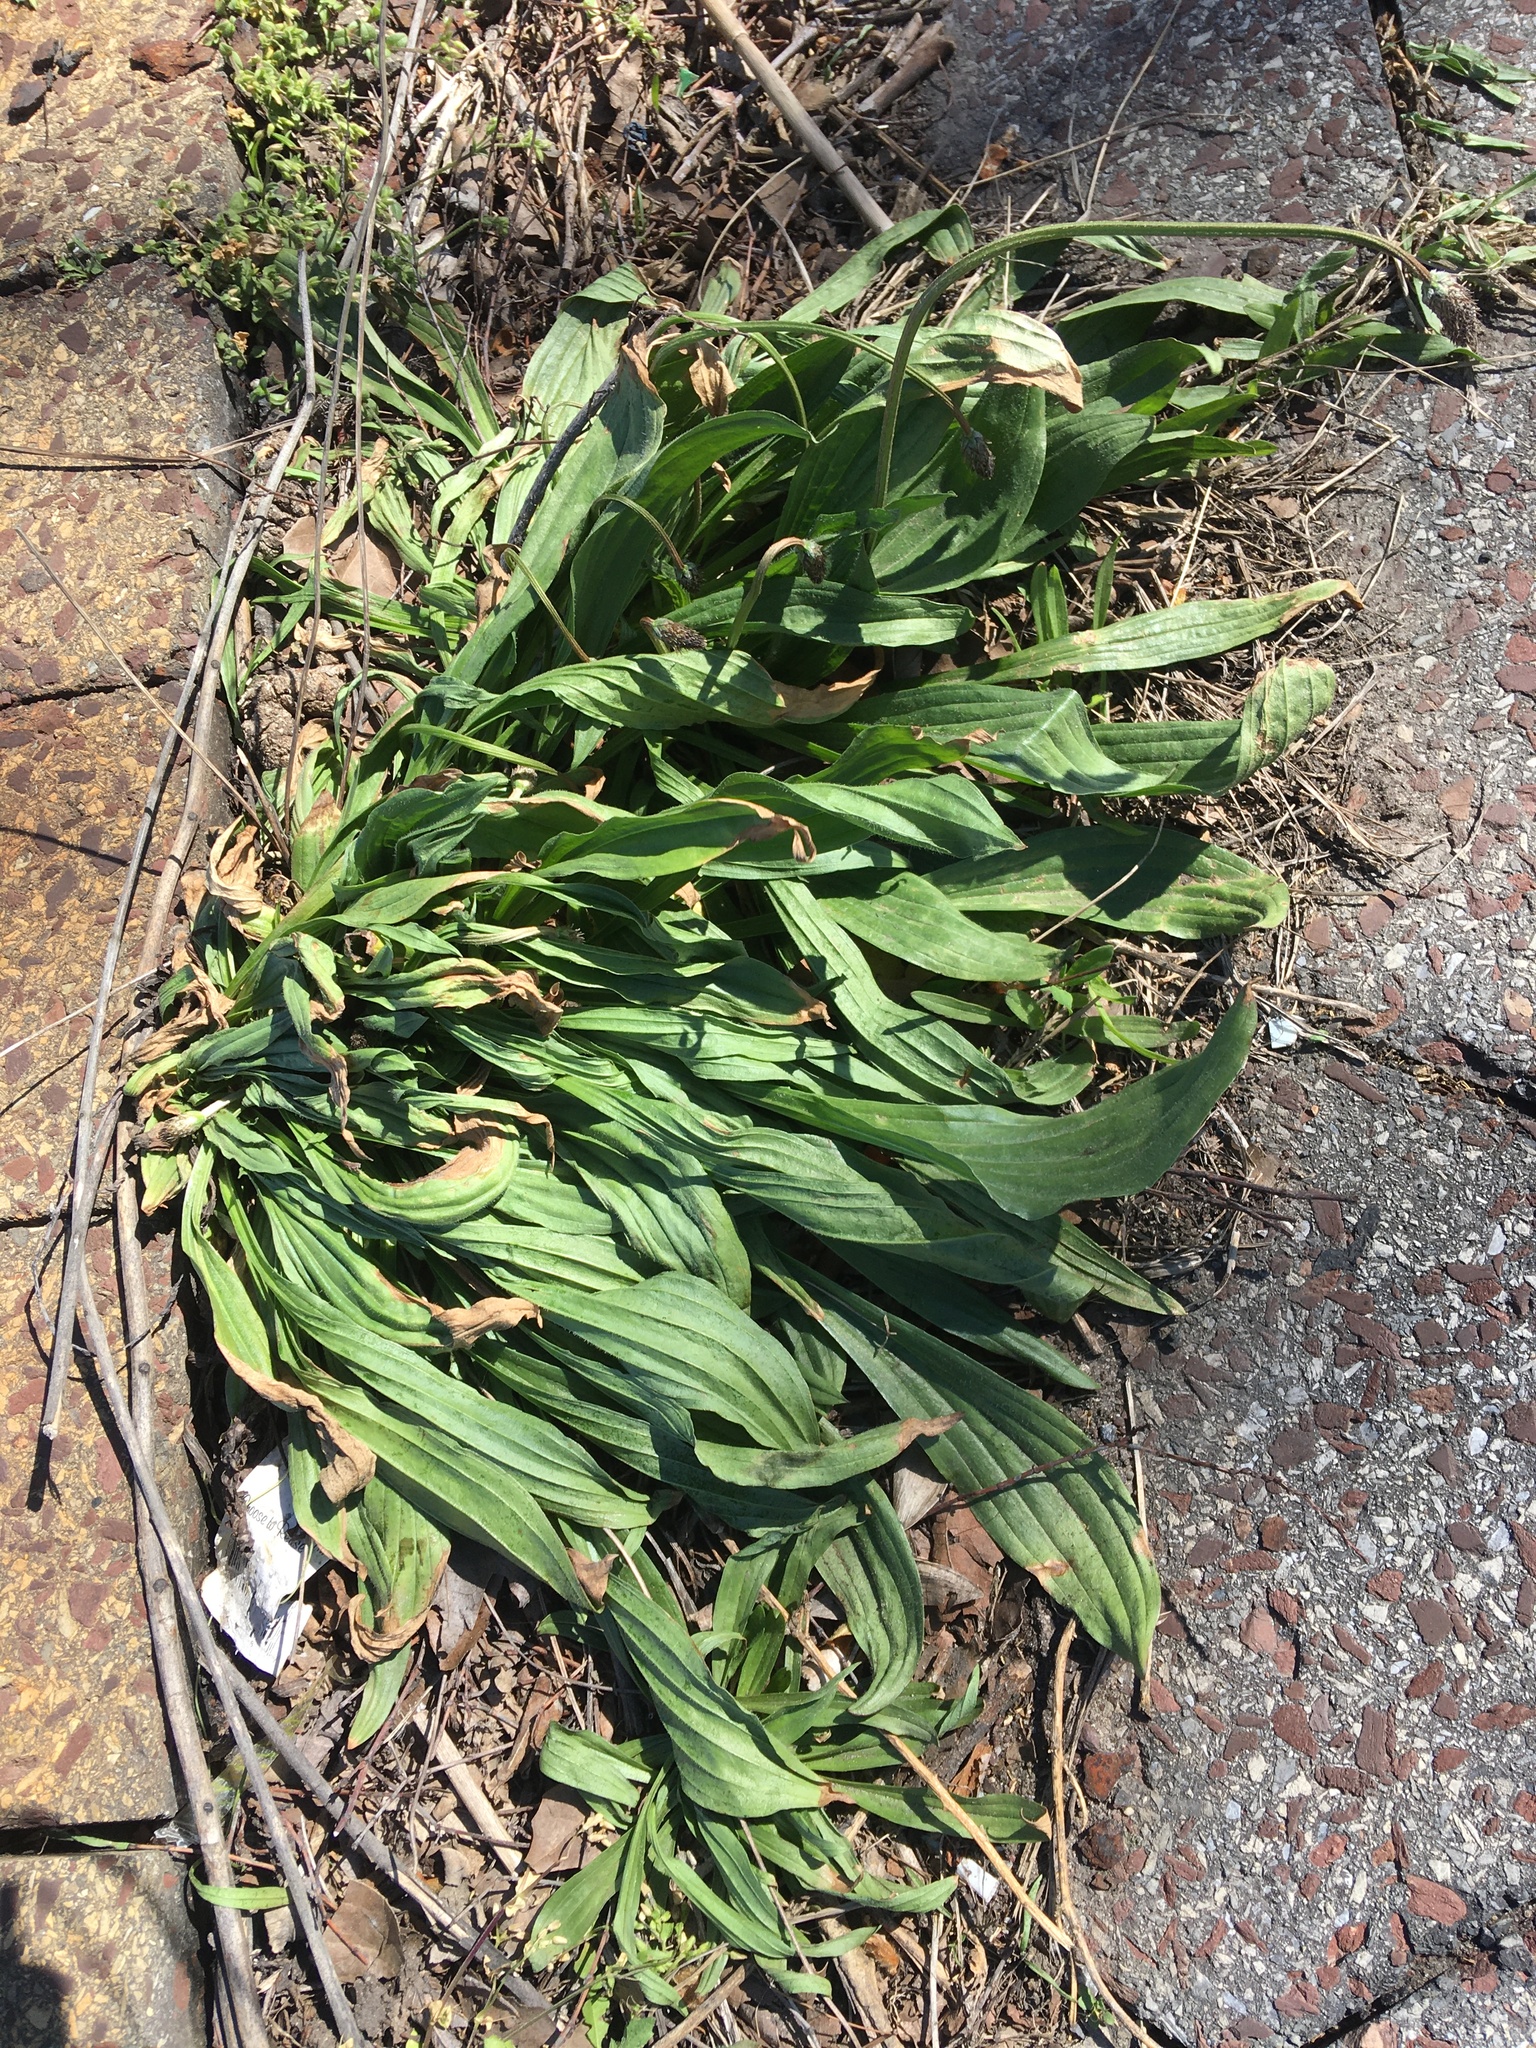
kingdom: Plantae
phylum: Tracheophyta
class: Magnoliopsida
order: Lamiales
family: Plantaginaceae
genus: Plantago
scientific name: Plantago lanceolata
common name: Ribwort plantain
